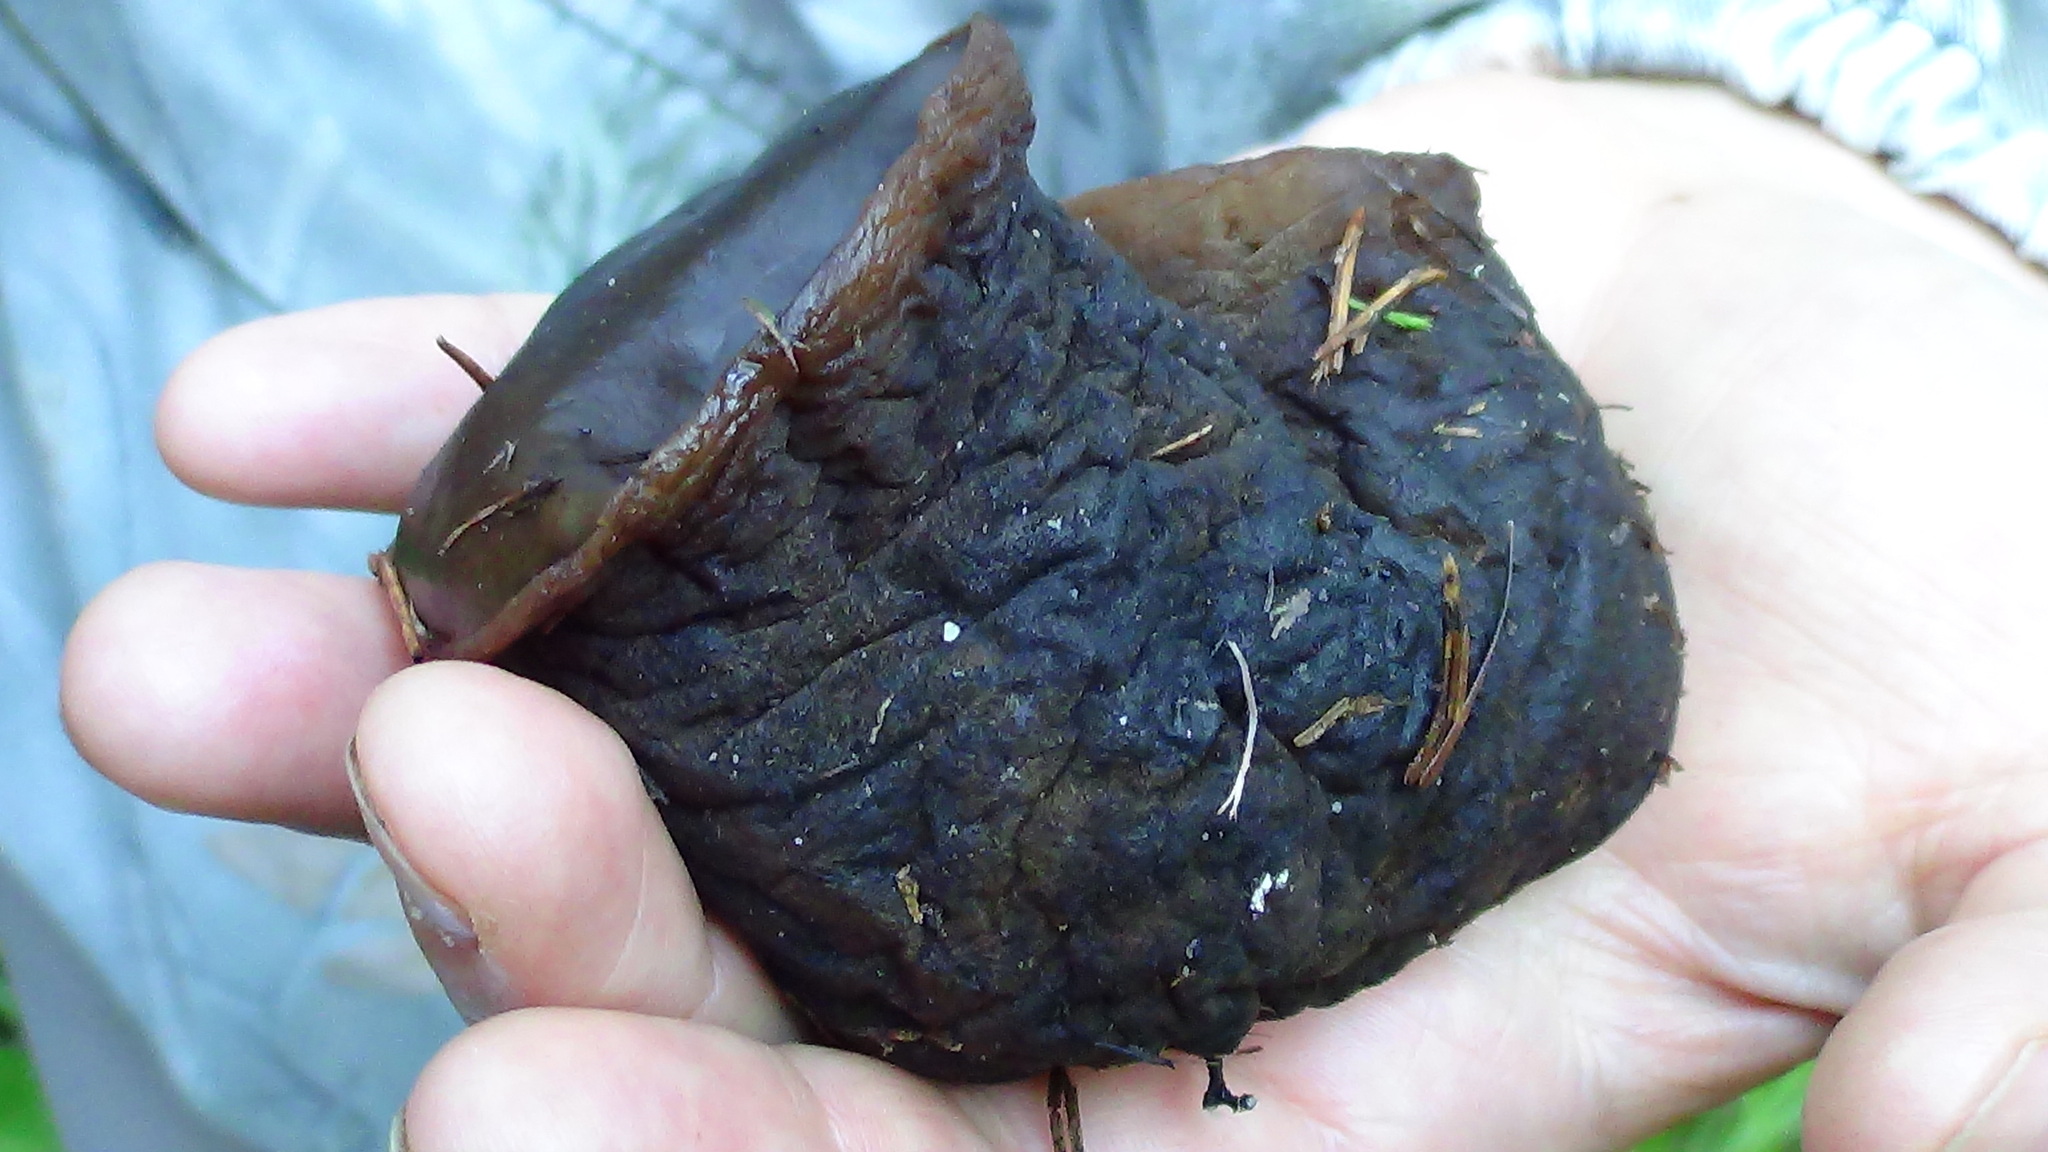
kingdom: Fungi
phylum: Ascomycota
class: Pezizomycetes
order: Pezizales
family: Sarcosomataceae
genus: Sarcosoma
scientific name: Sarcosoma globosum
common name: Charred-pancake cup
